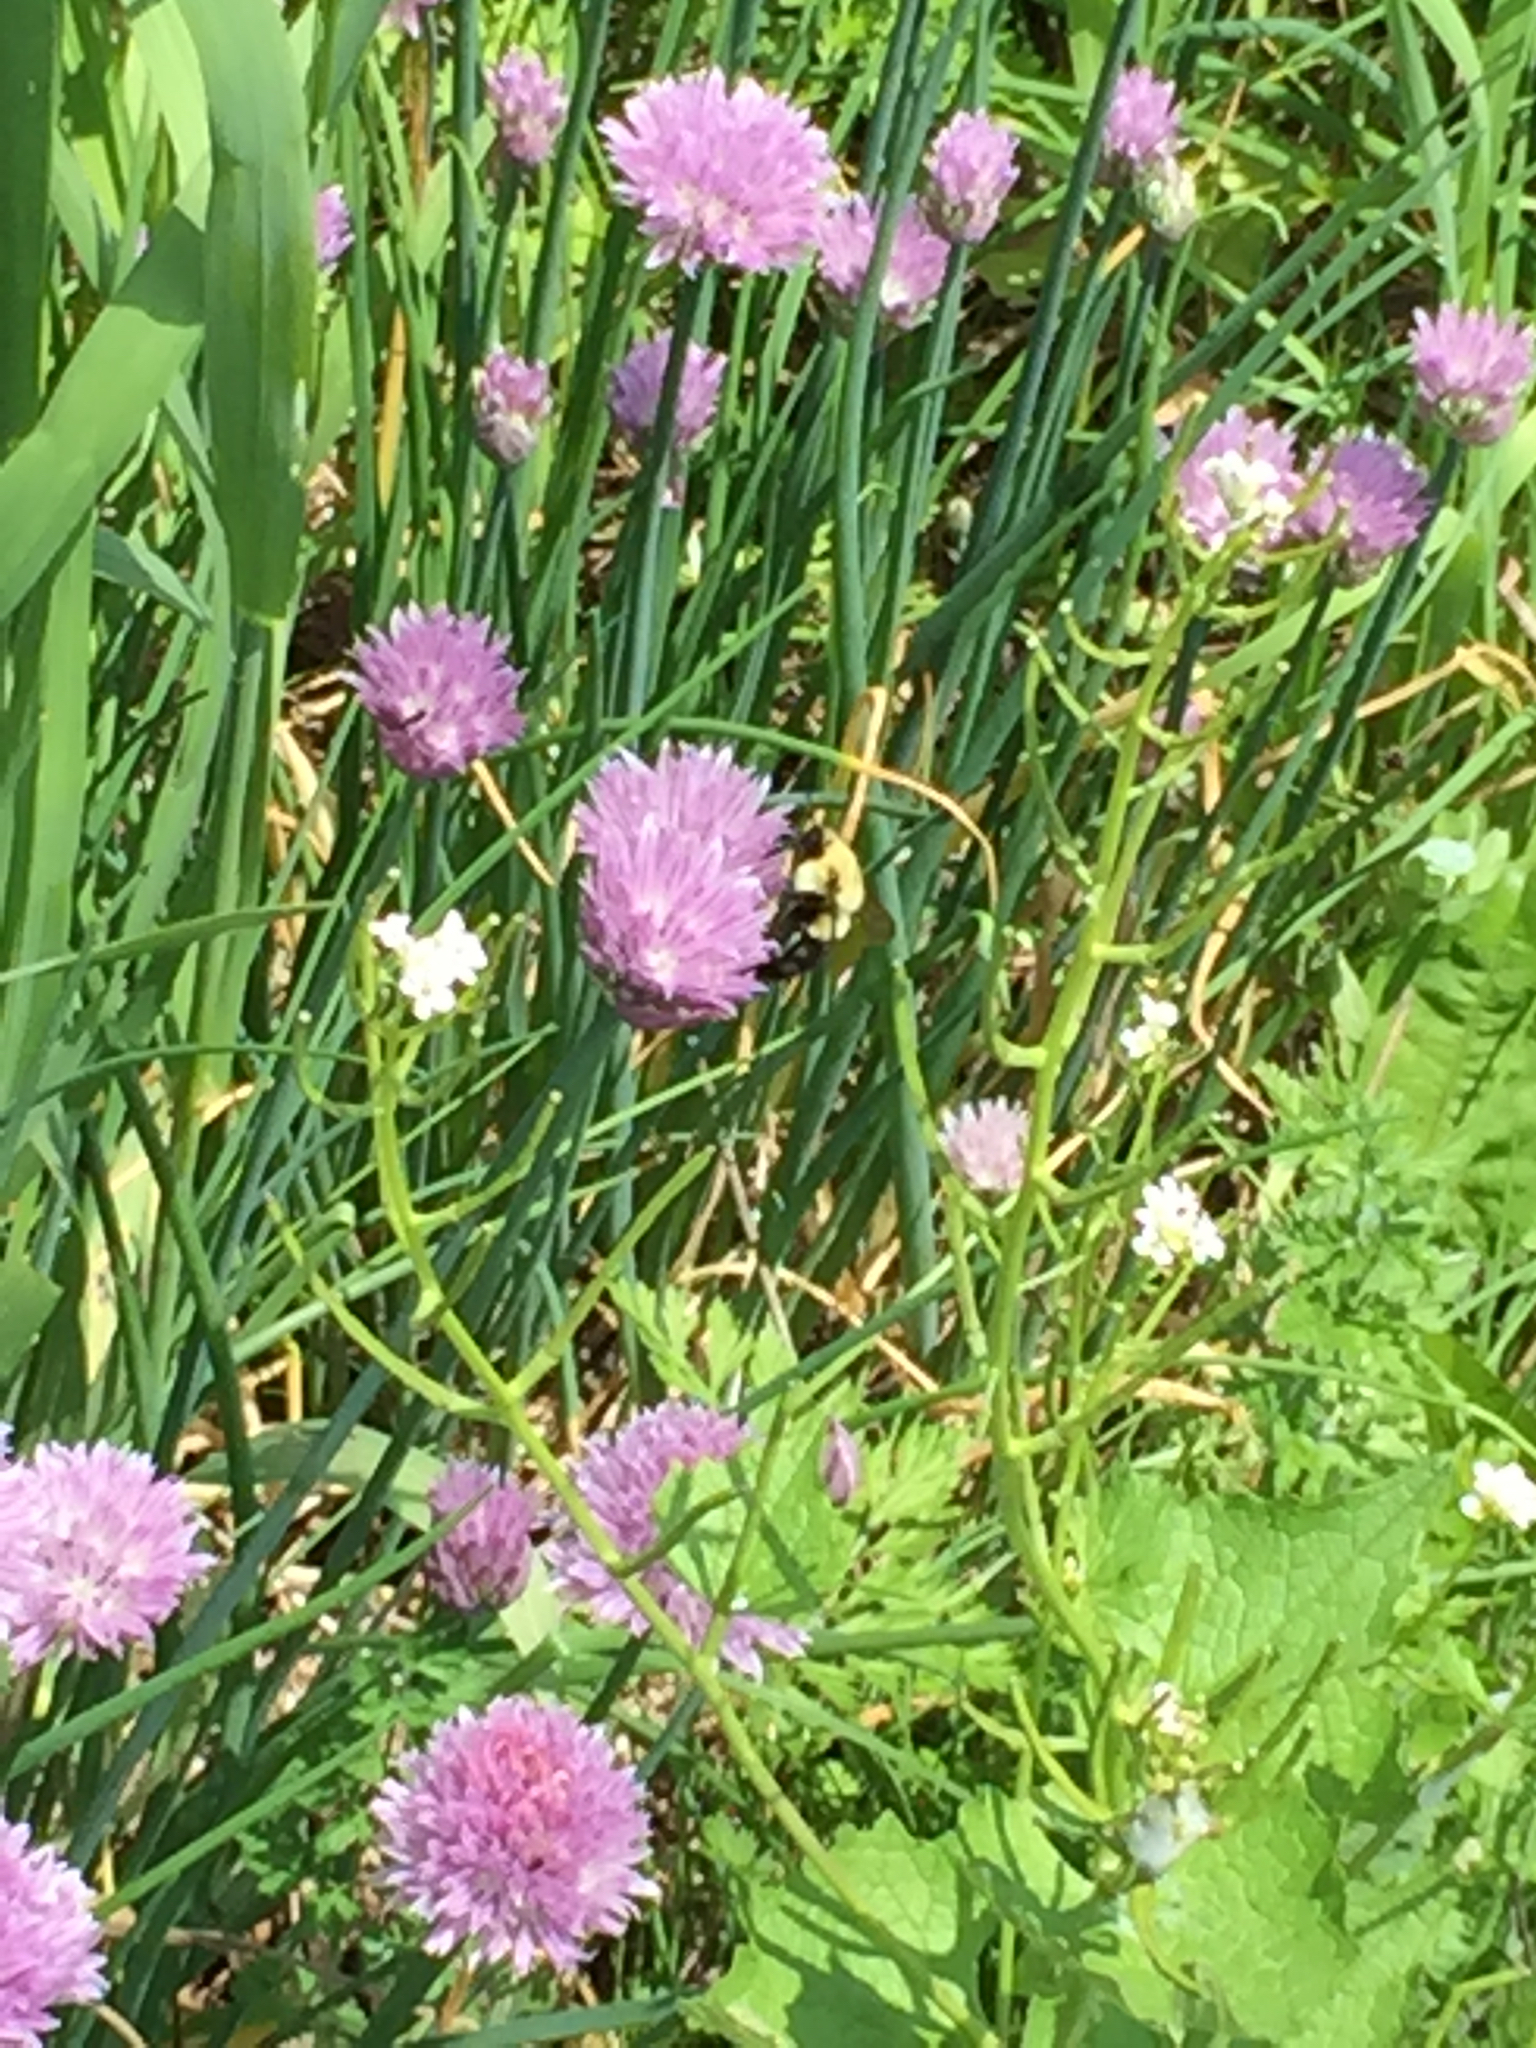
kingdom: Animalia
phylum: Arthropoda
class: Insecta
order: Hymenoptera
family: Apidae
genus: Bombus
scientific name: Bombus impatiens
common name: Common eastern bumble bee
